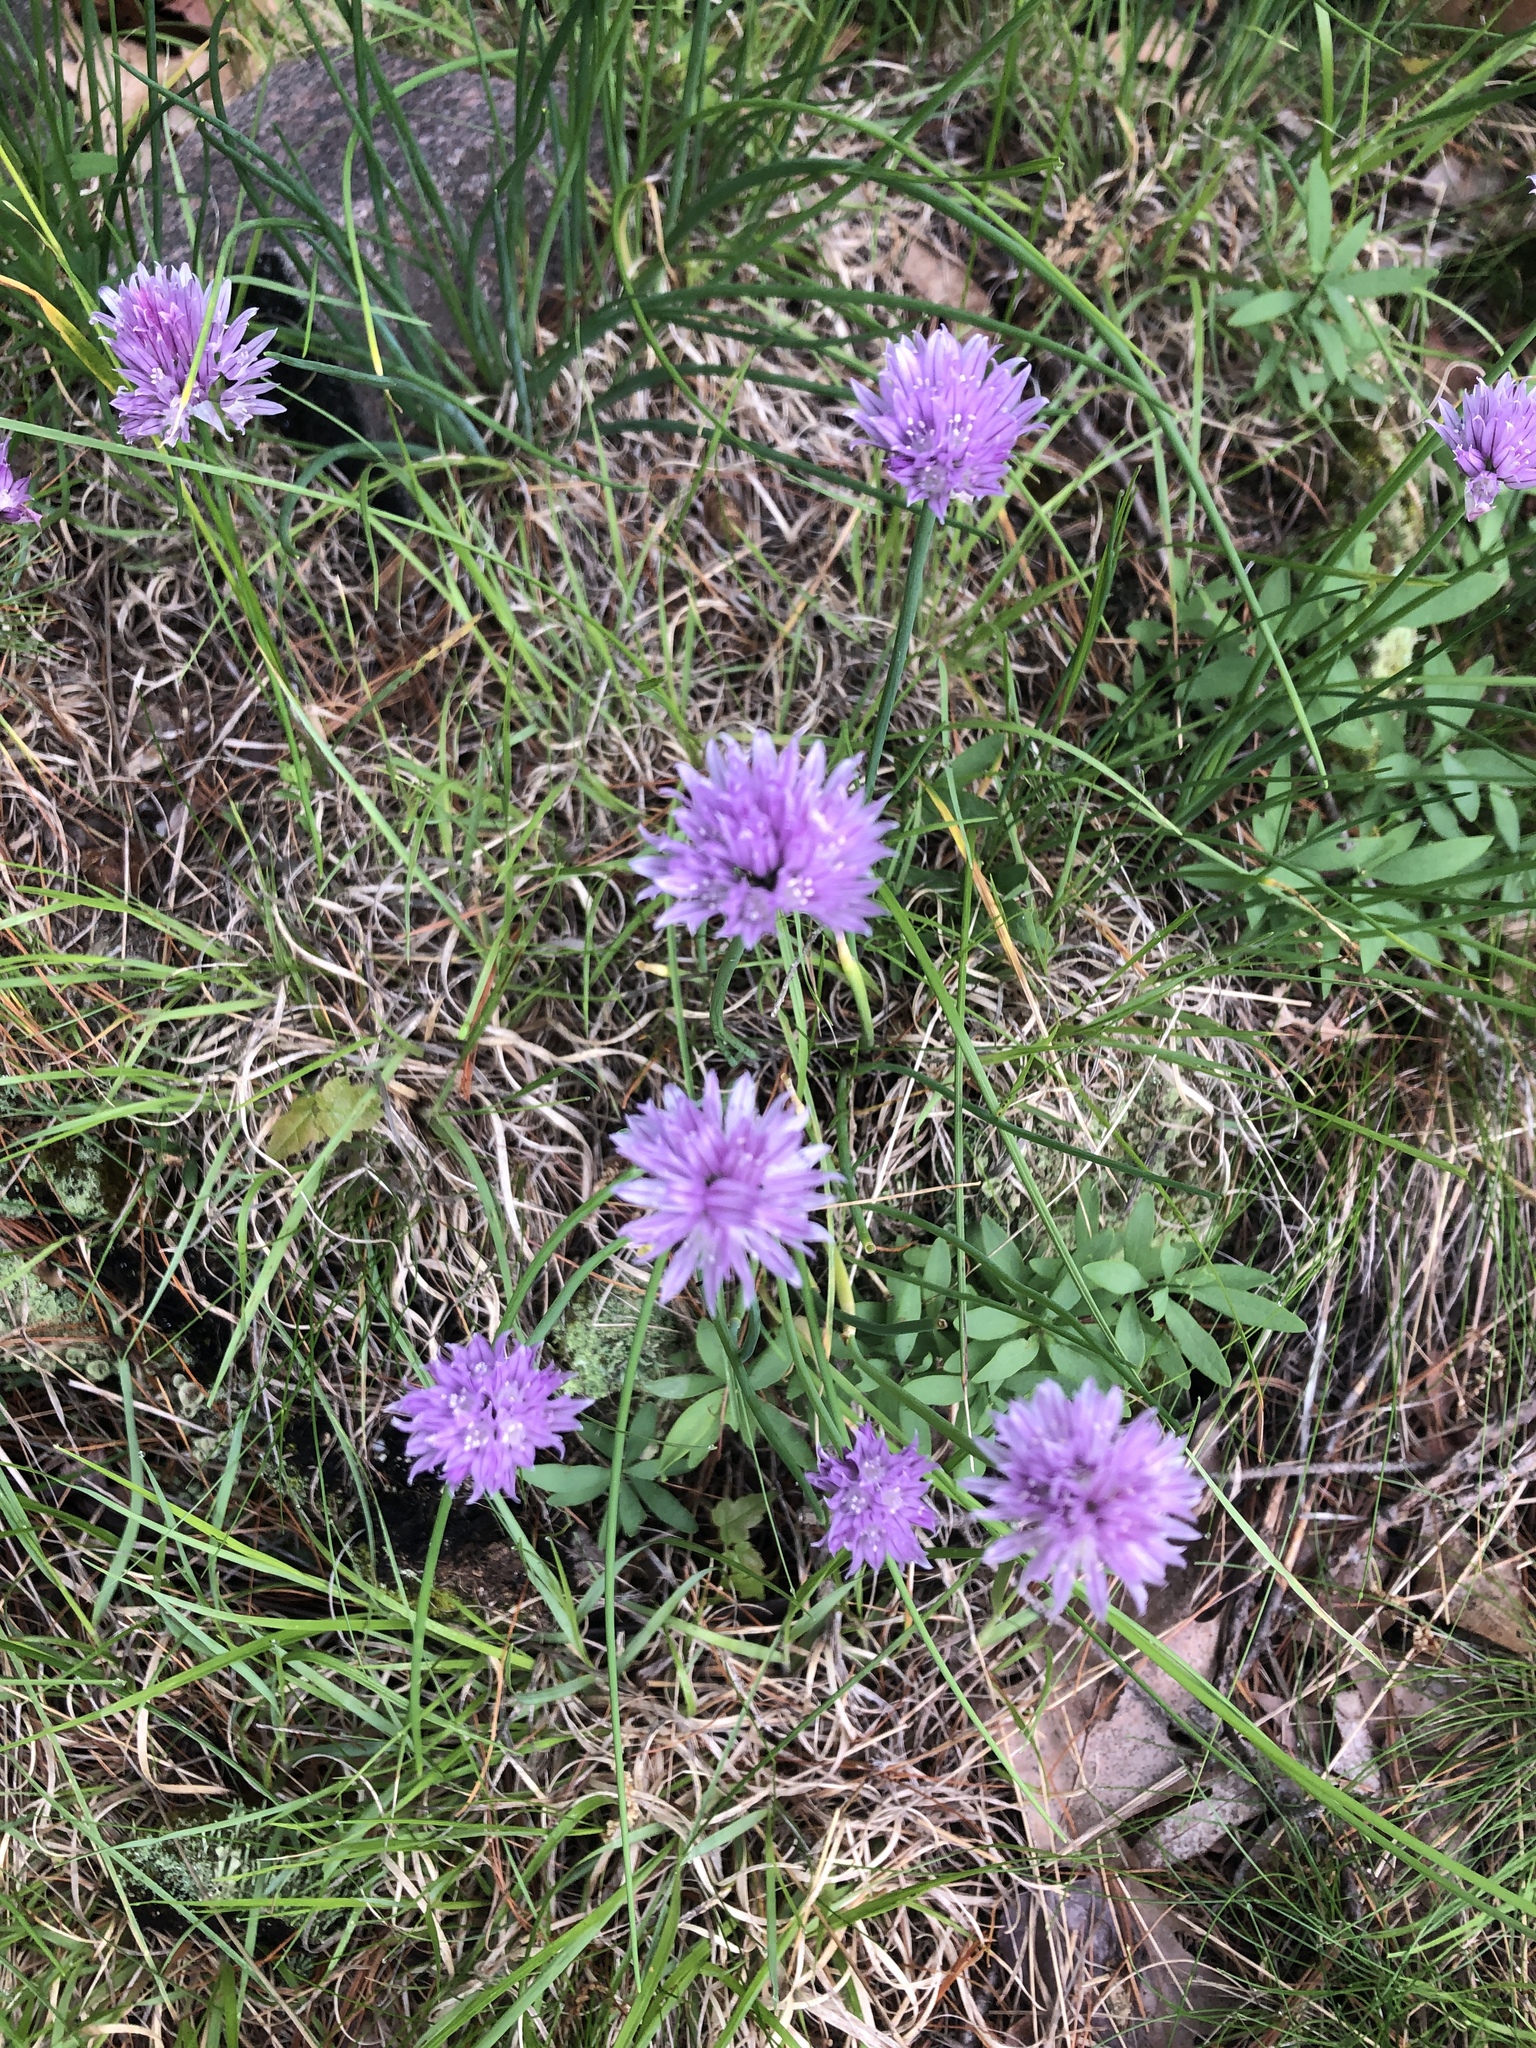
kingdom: Plantae
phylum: Tracheophyta
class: Liliopsida
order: Asparagales
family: Amaryllidaceae
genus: Allium
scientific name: Allium schoenoprasum
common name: Chives
